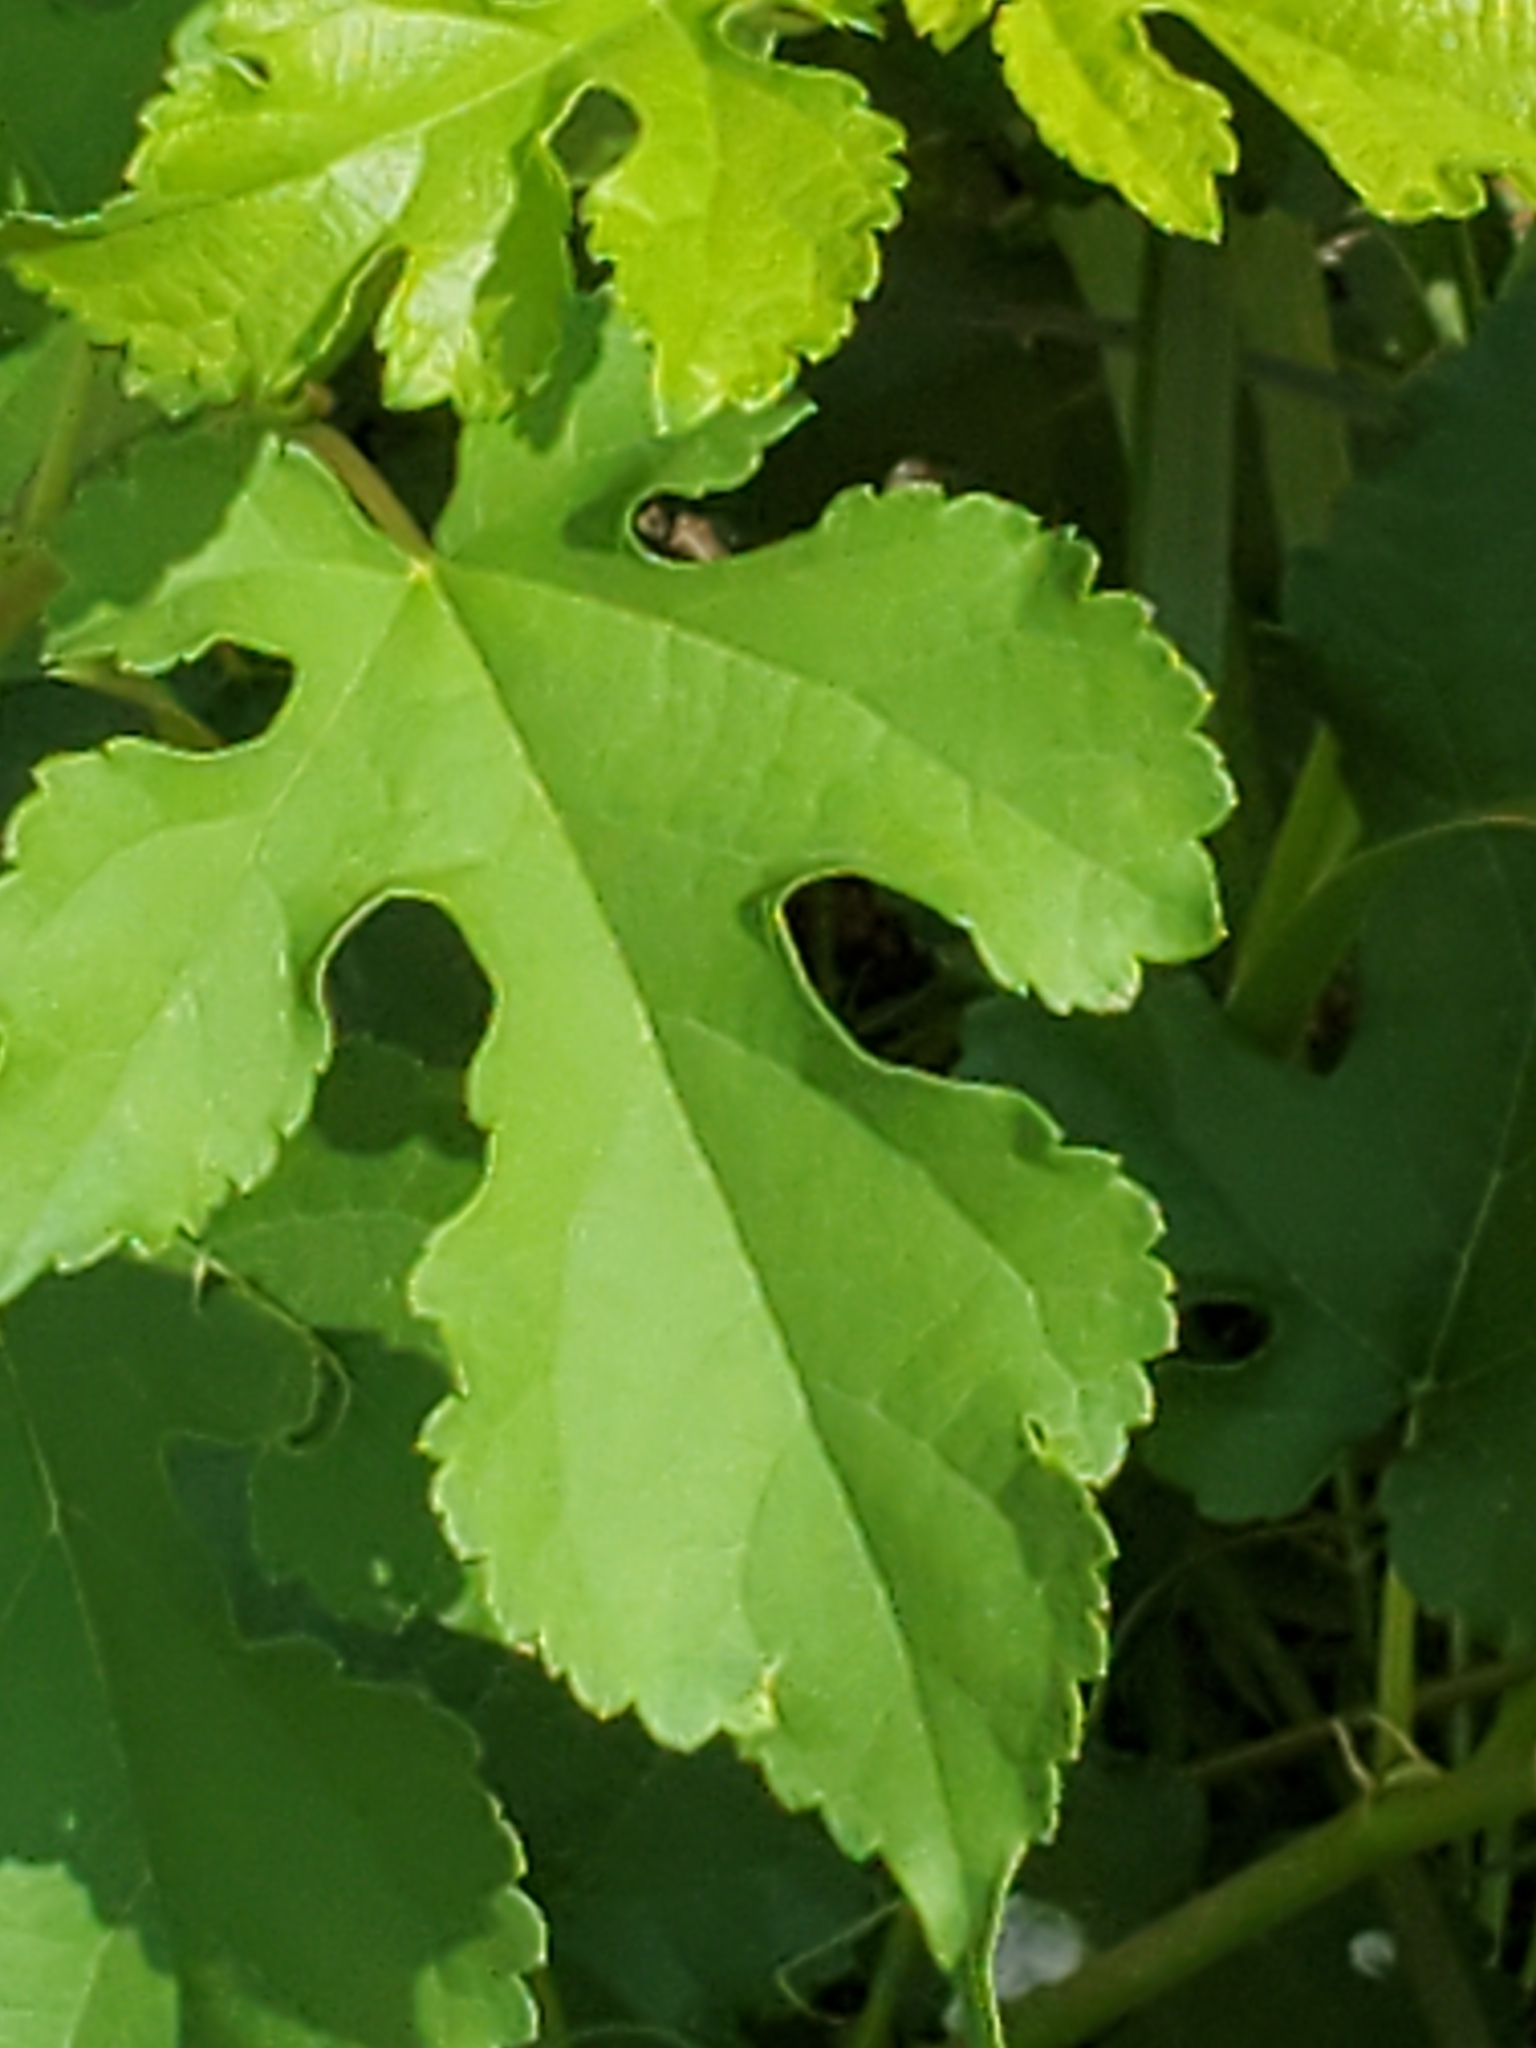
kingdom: Plantae
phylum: Tracheophyta
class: Magnoliopsida
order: Rosales
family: Moraceae
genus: Morus
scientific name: Morus alba
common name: White mulberry
